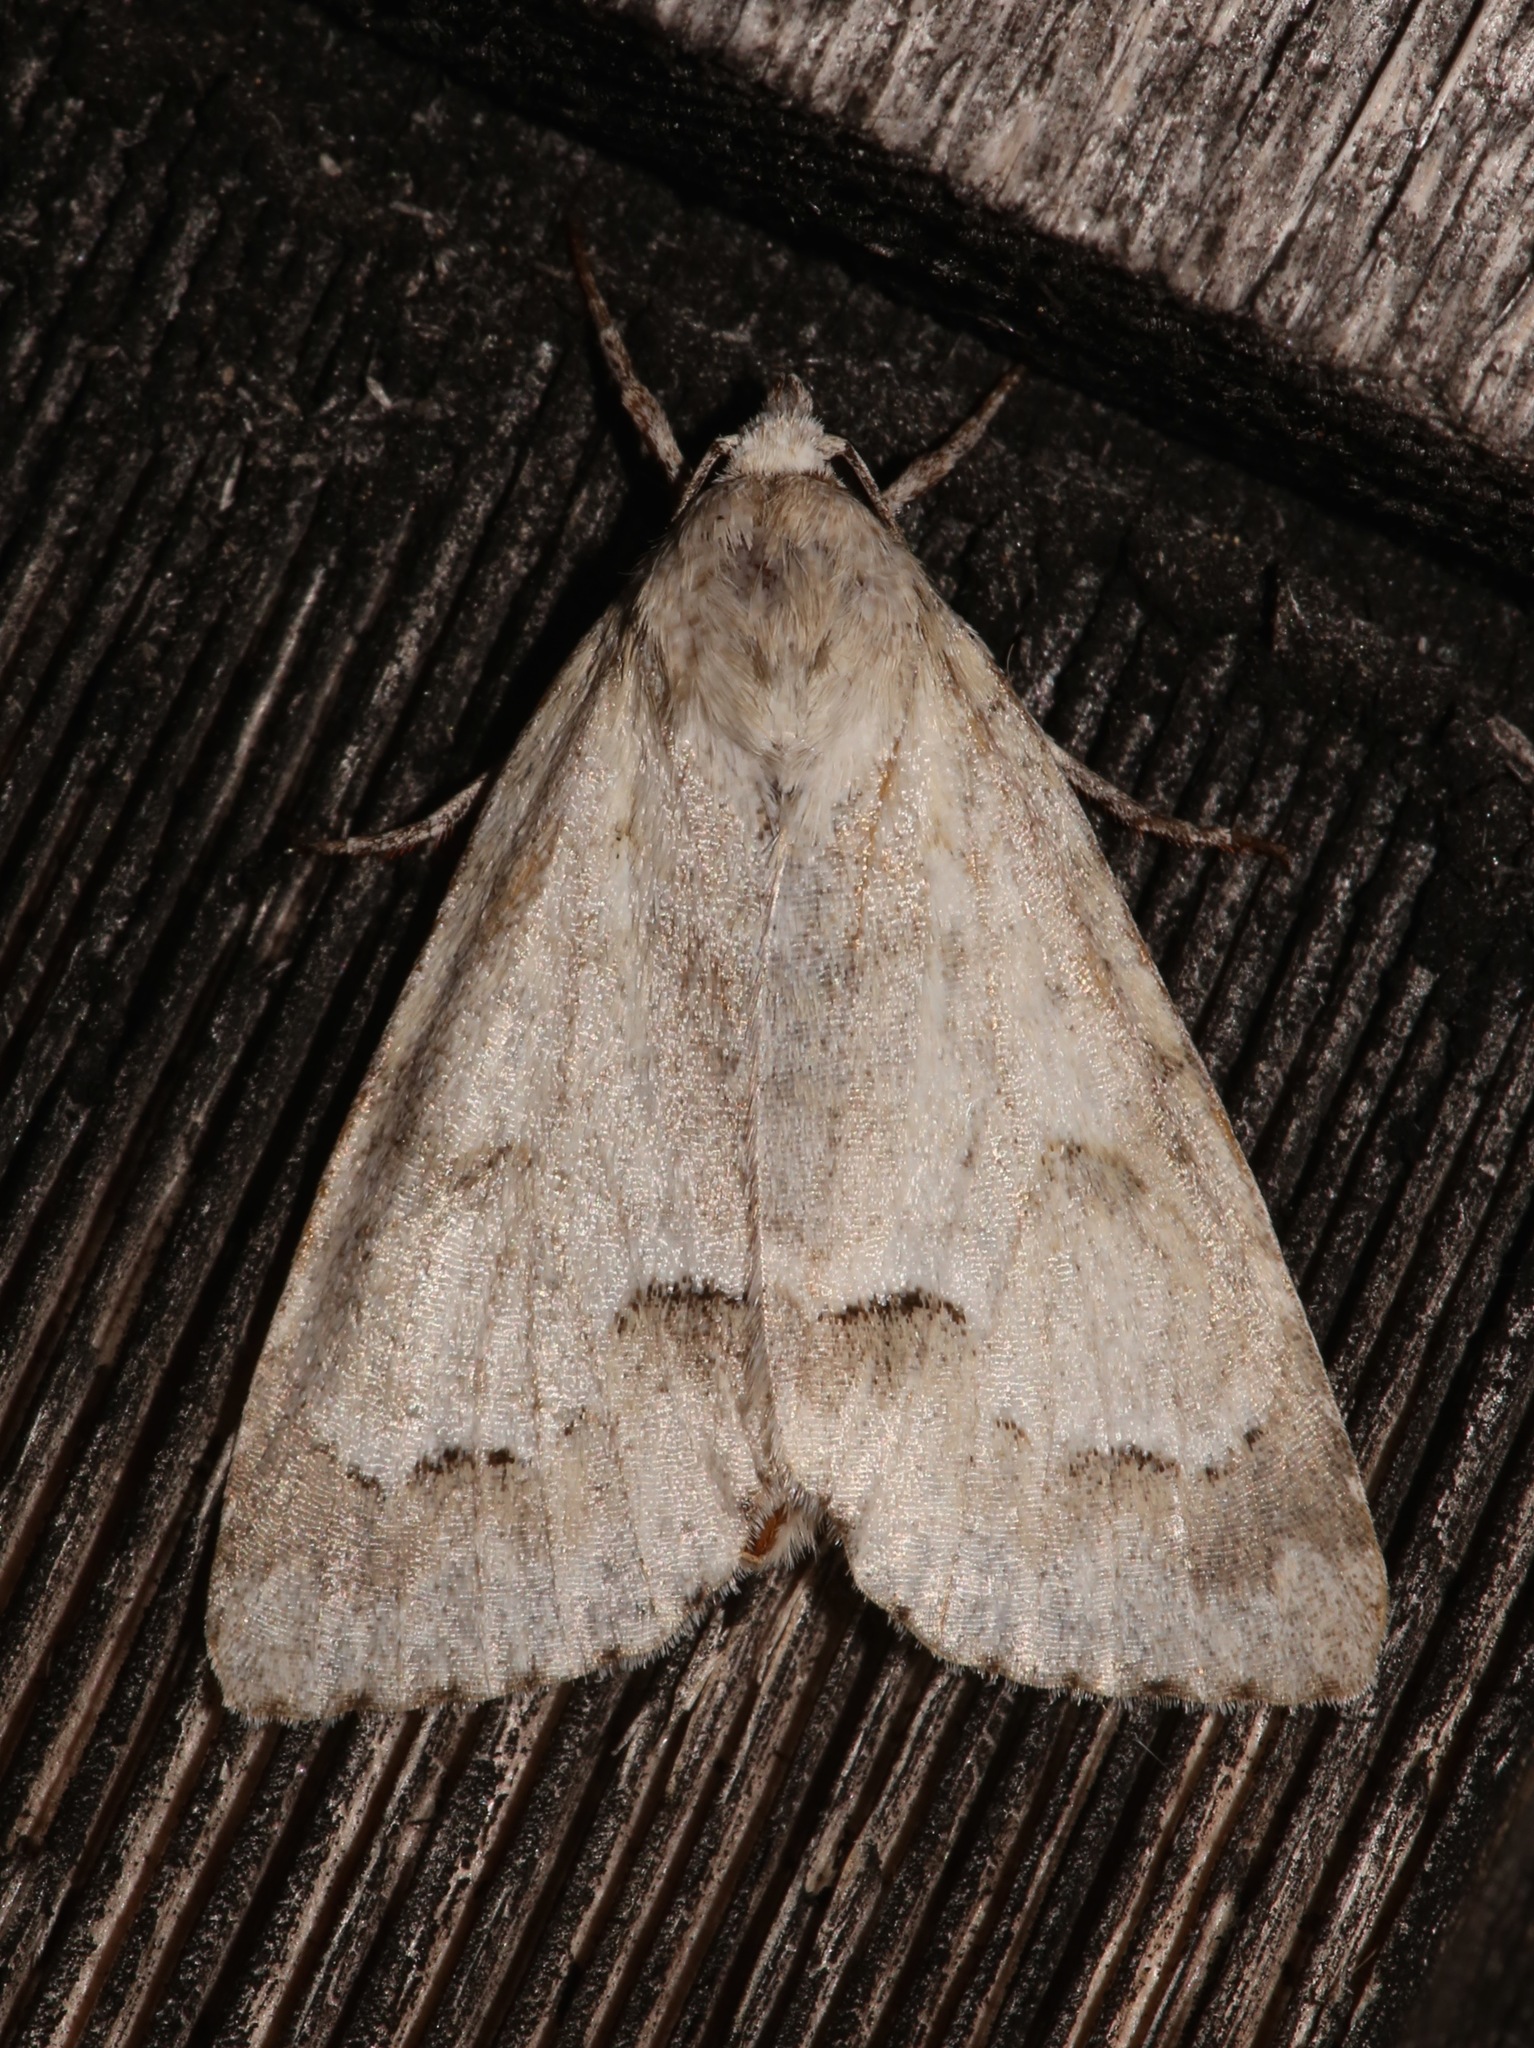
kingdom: Animalia
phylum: Arthropoda
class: Insecta
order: Lepidoptera
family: Noctuidae
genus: Acronicta
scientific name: Acronicta innotata
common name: Unmarked dagger
